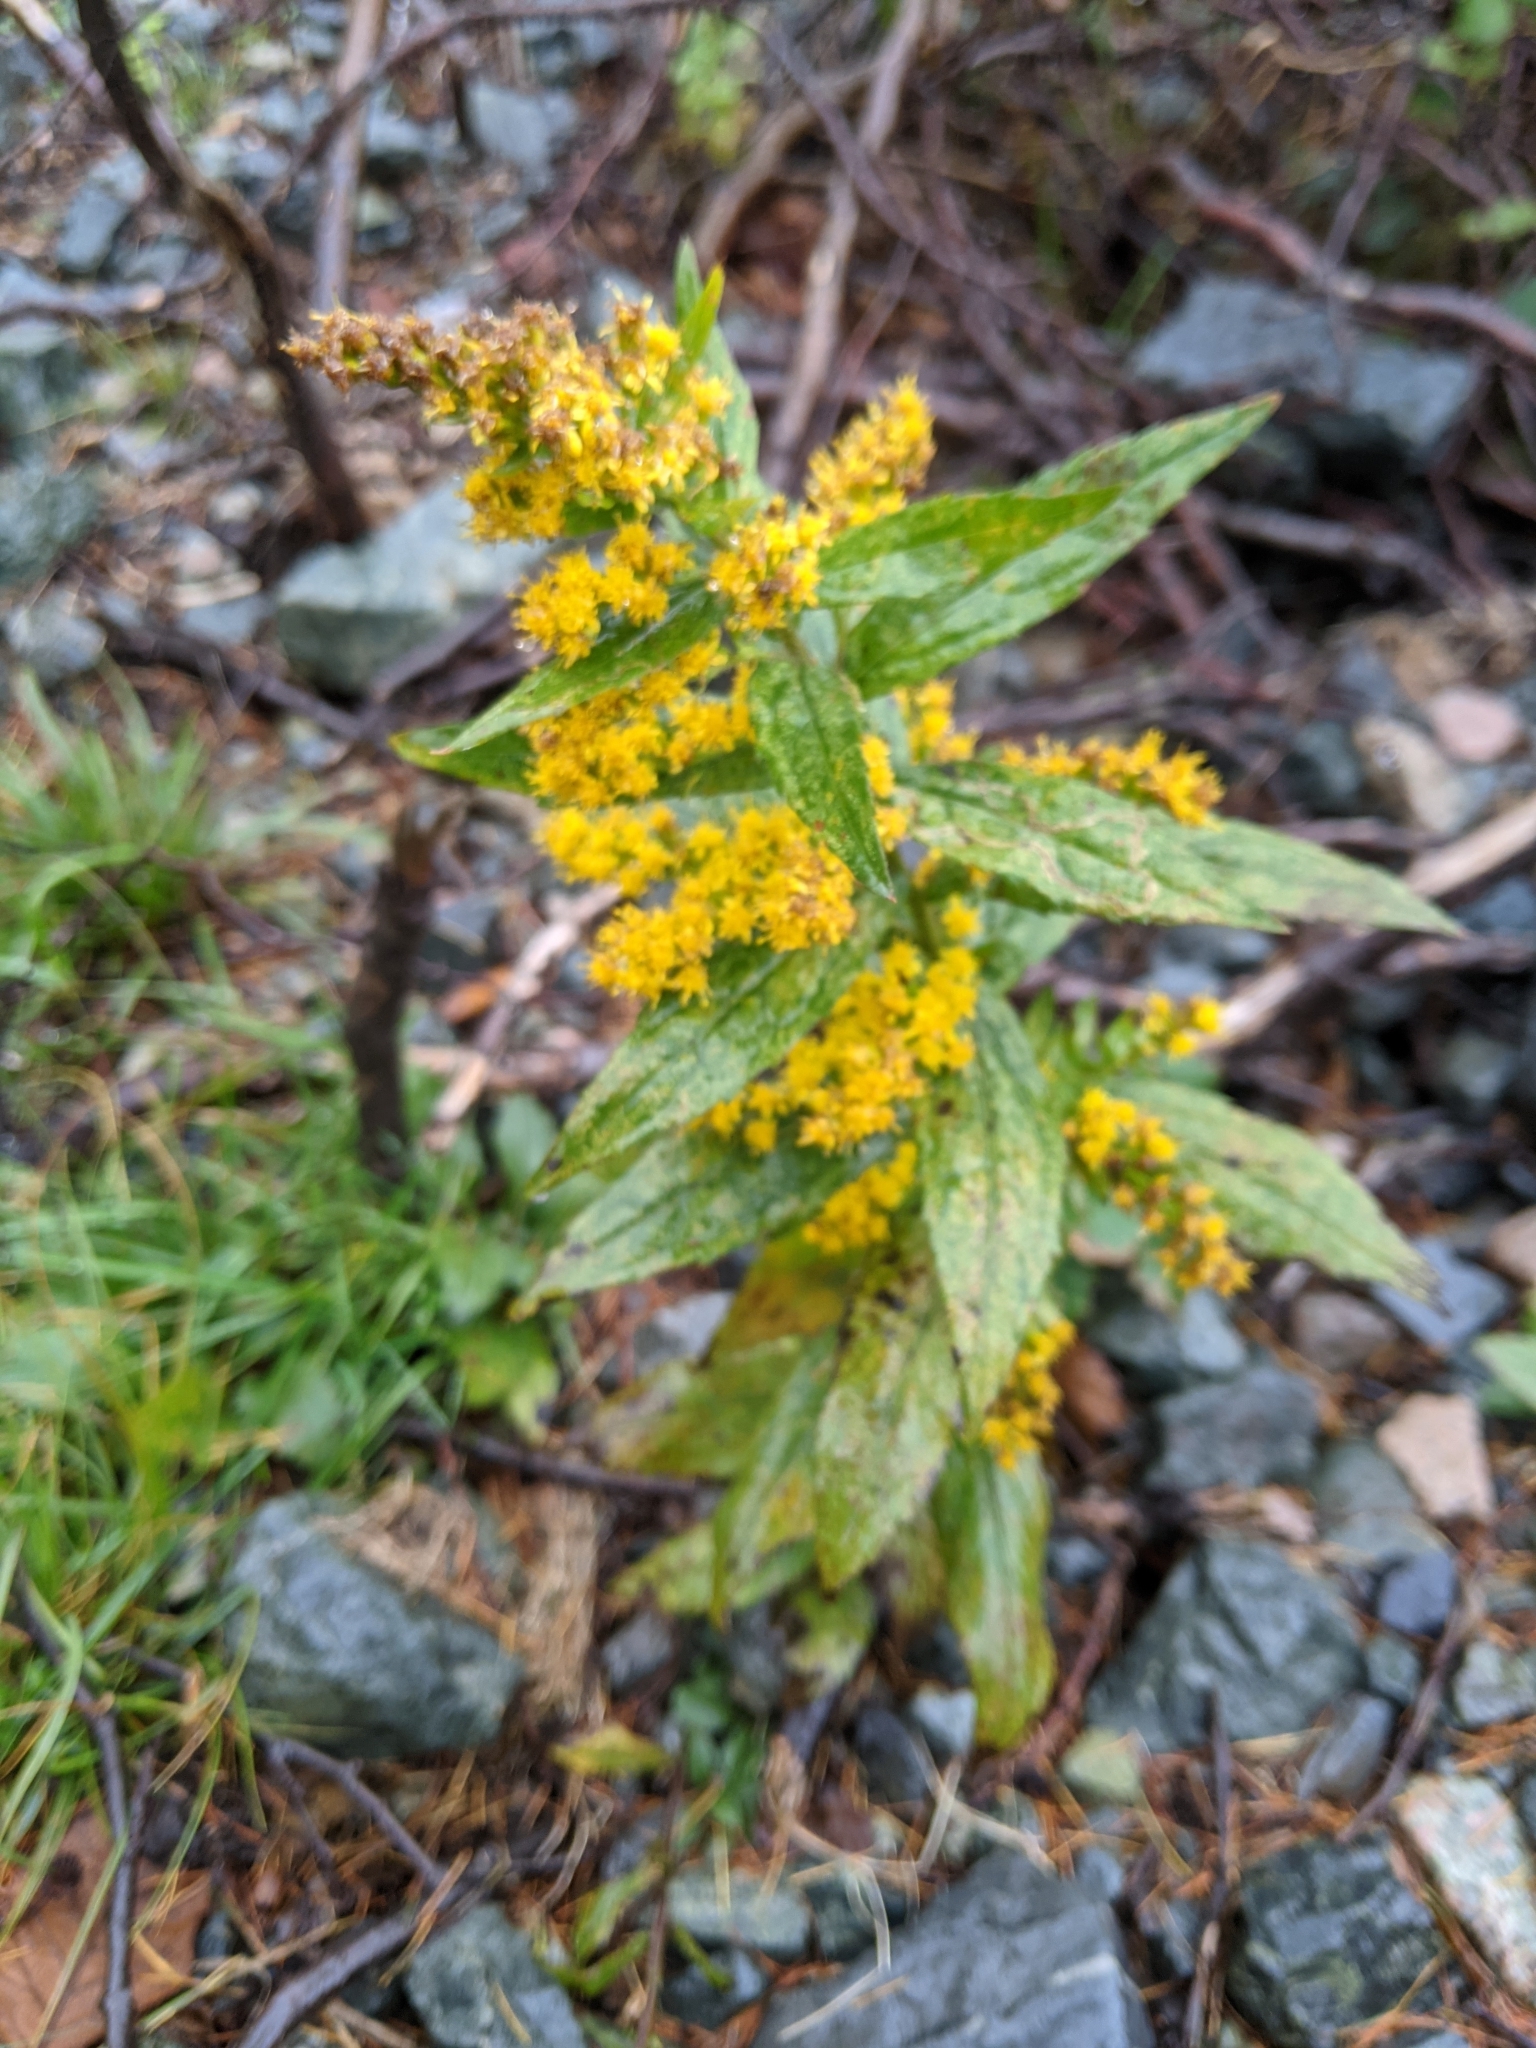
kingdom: Plantae
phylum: Tracheophyta
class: Magnoliopsida
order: Asterales
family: Asteraceae
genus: Solidago
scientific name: Solidago rugosa
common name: Rough-stemmed goldenrod
